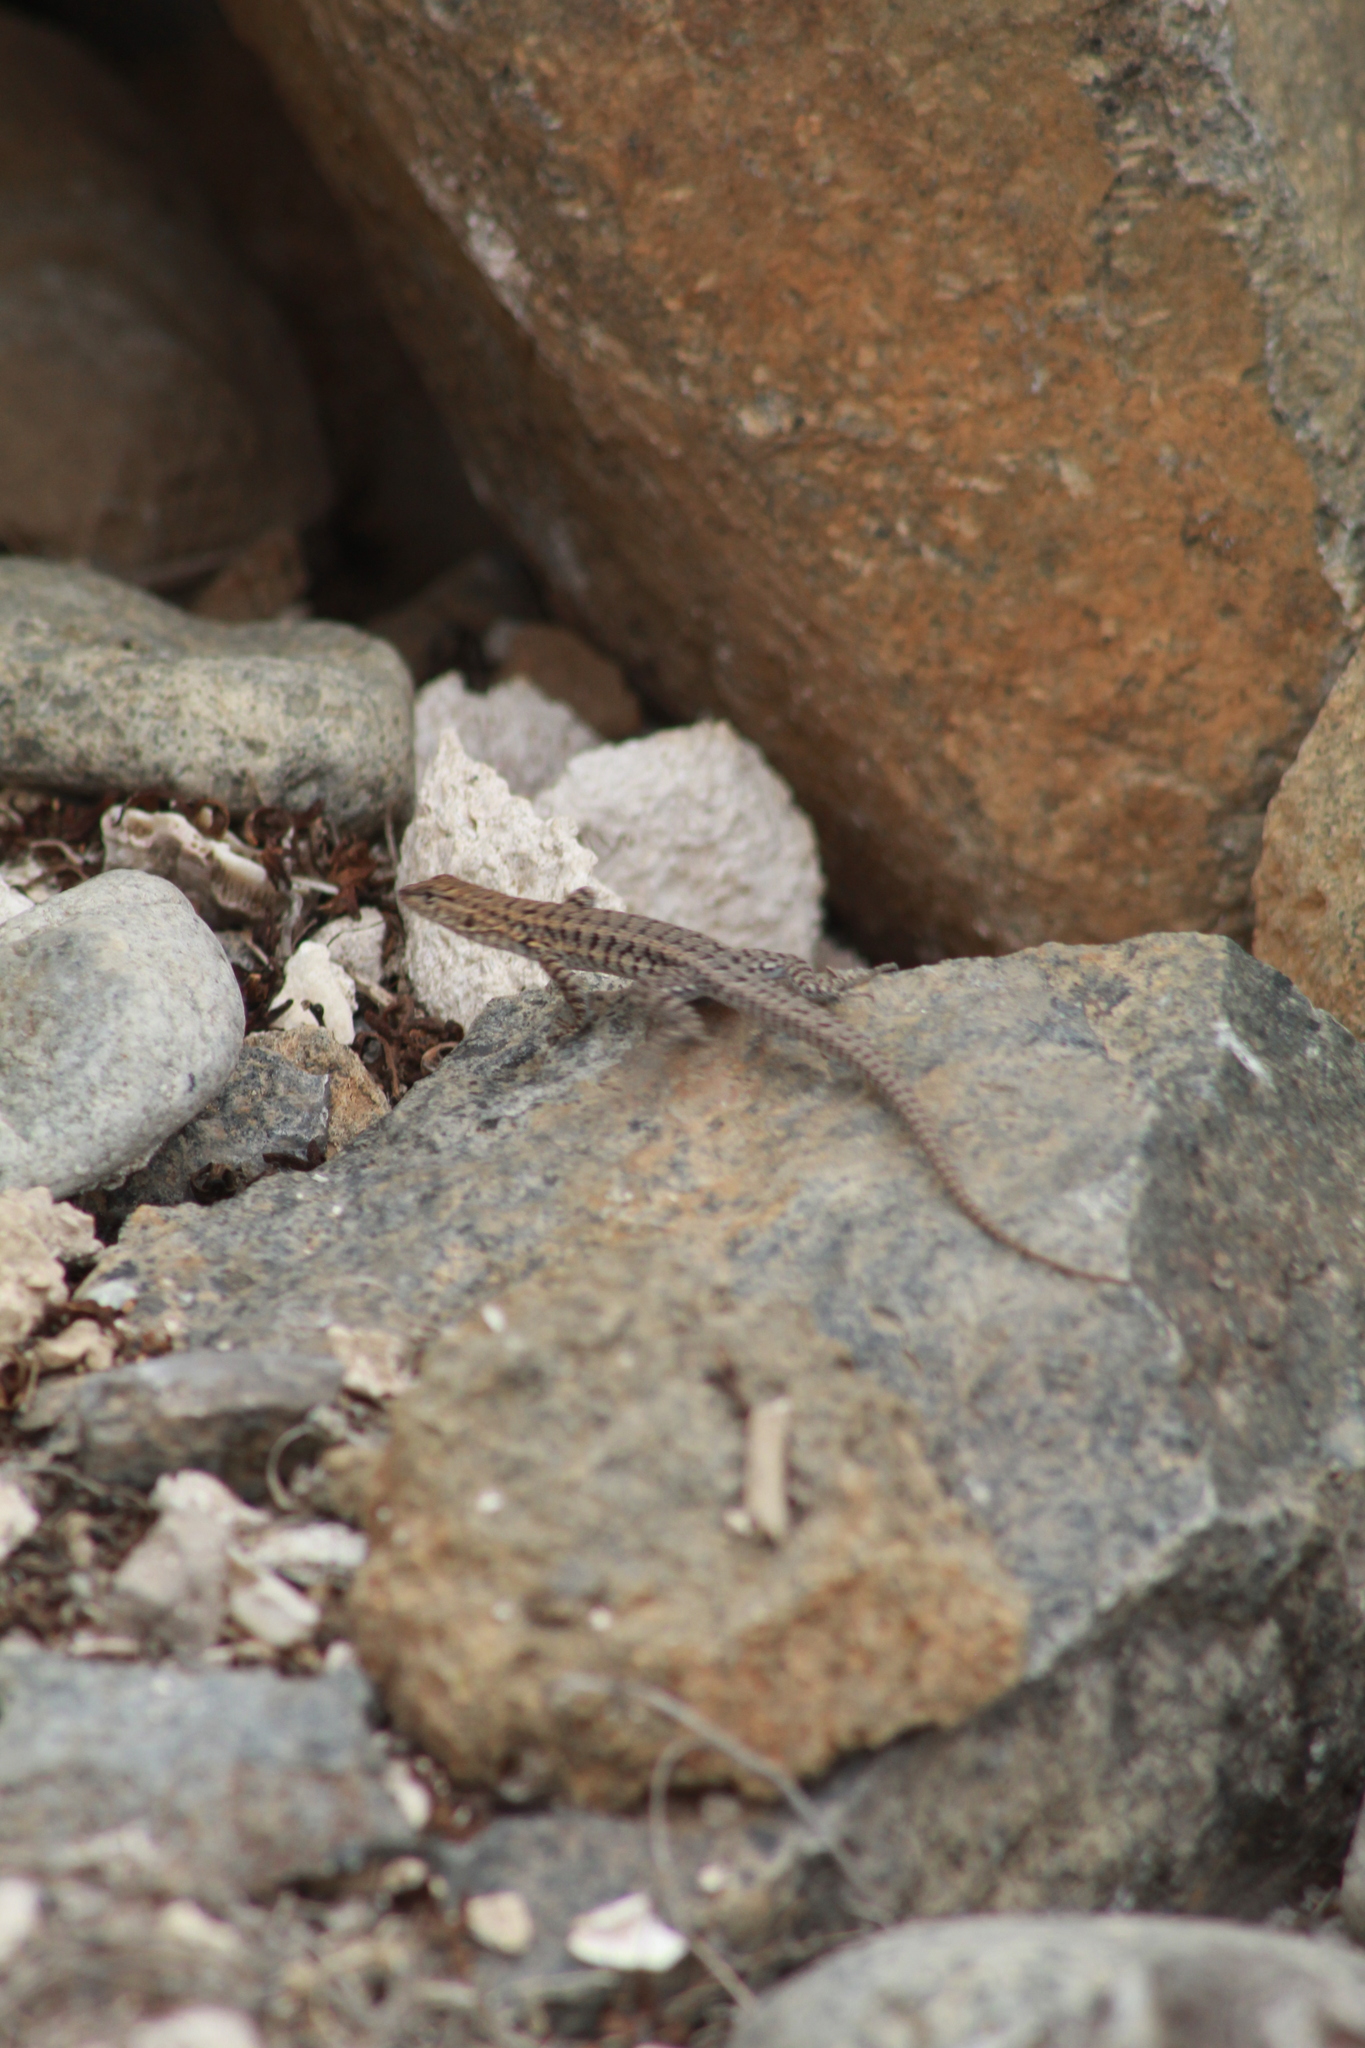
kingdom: Animalia
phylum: Chordata
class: Squamata
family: Liolaemidae
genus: Liolaemus
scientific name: Liolaemus platei
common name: Braided tree iguana
